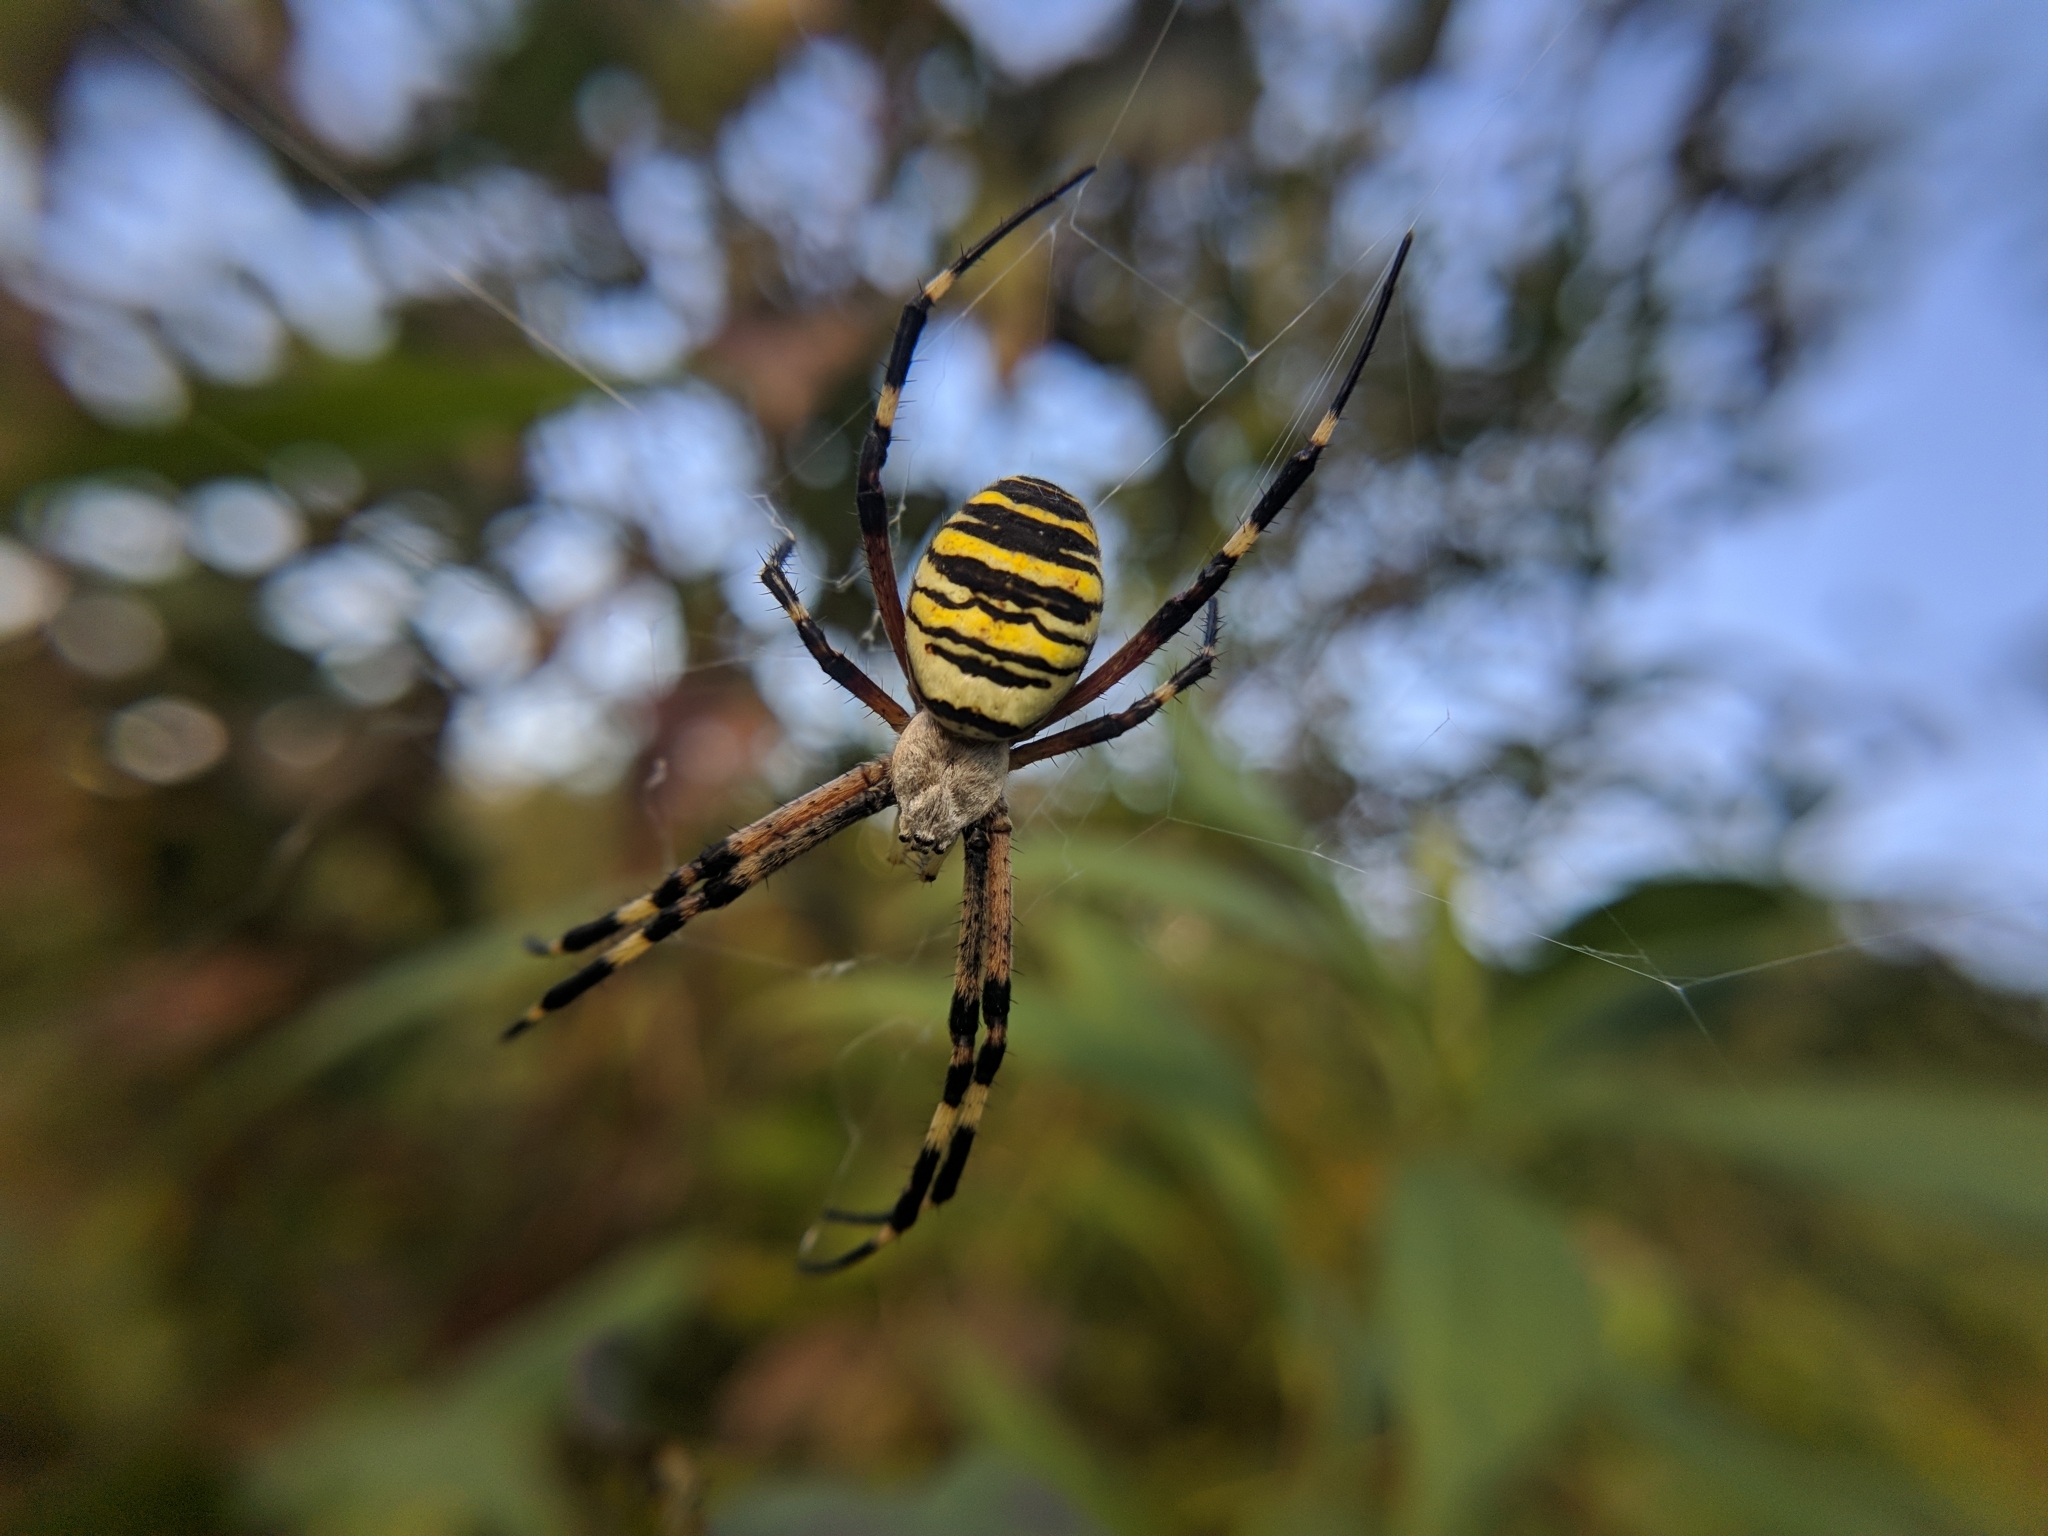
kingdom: Animalia
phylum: Arthropoda
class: Arachnida
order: Araneae
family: Araneidae
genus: Argiope
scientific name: Argiope bruennichi
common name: Wasp spider
